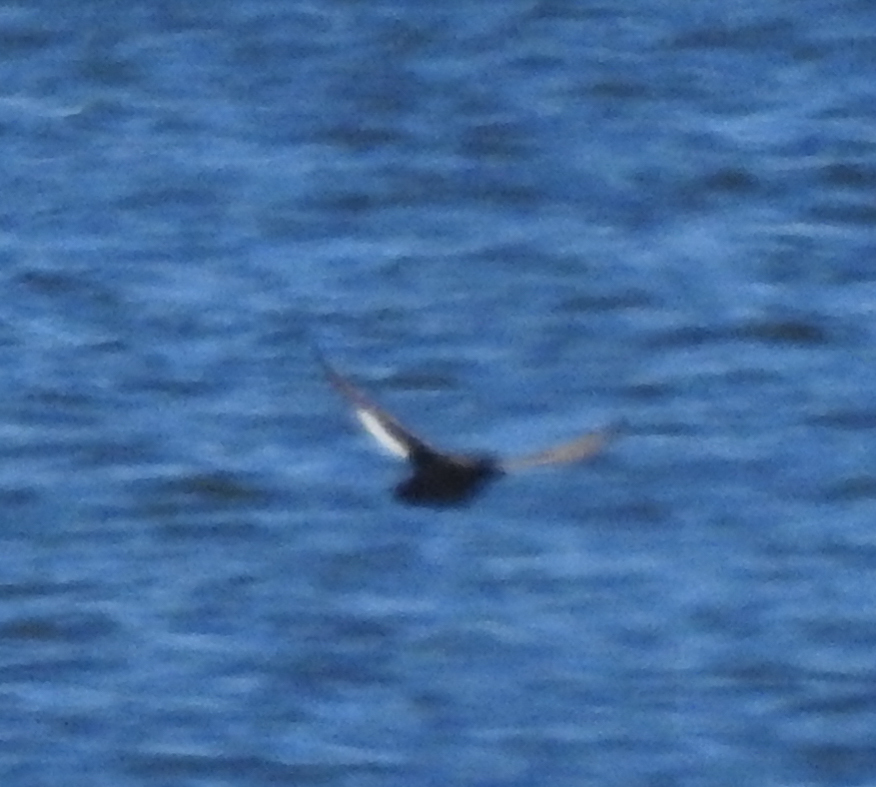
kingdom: Animalia
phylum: Chordata
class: Aves
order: Anseriformes
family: Anatidae
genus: Melanitta
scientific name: Melanitta deglandi
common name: White-winged scoter
